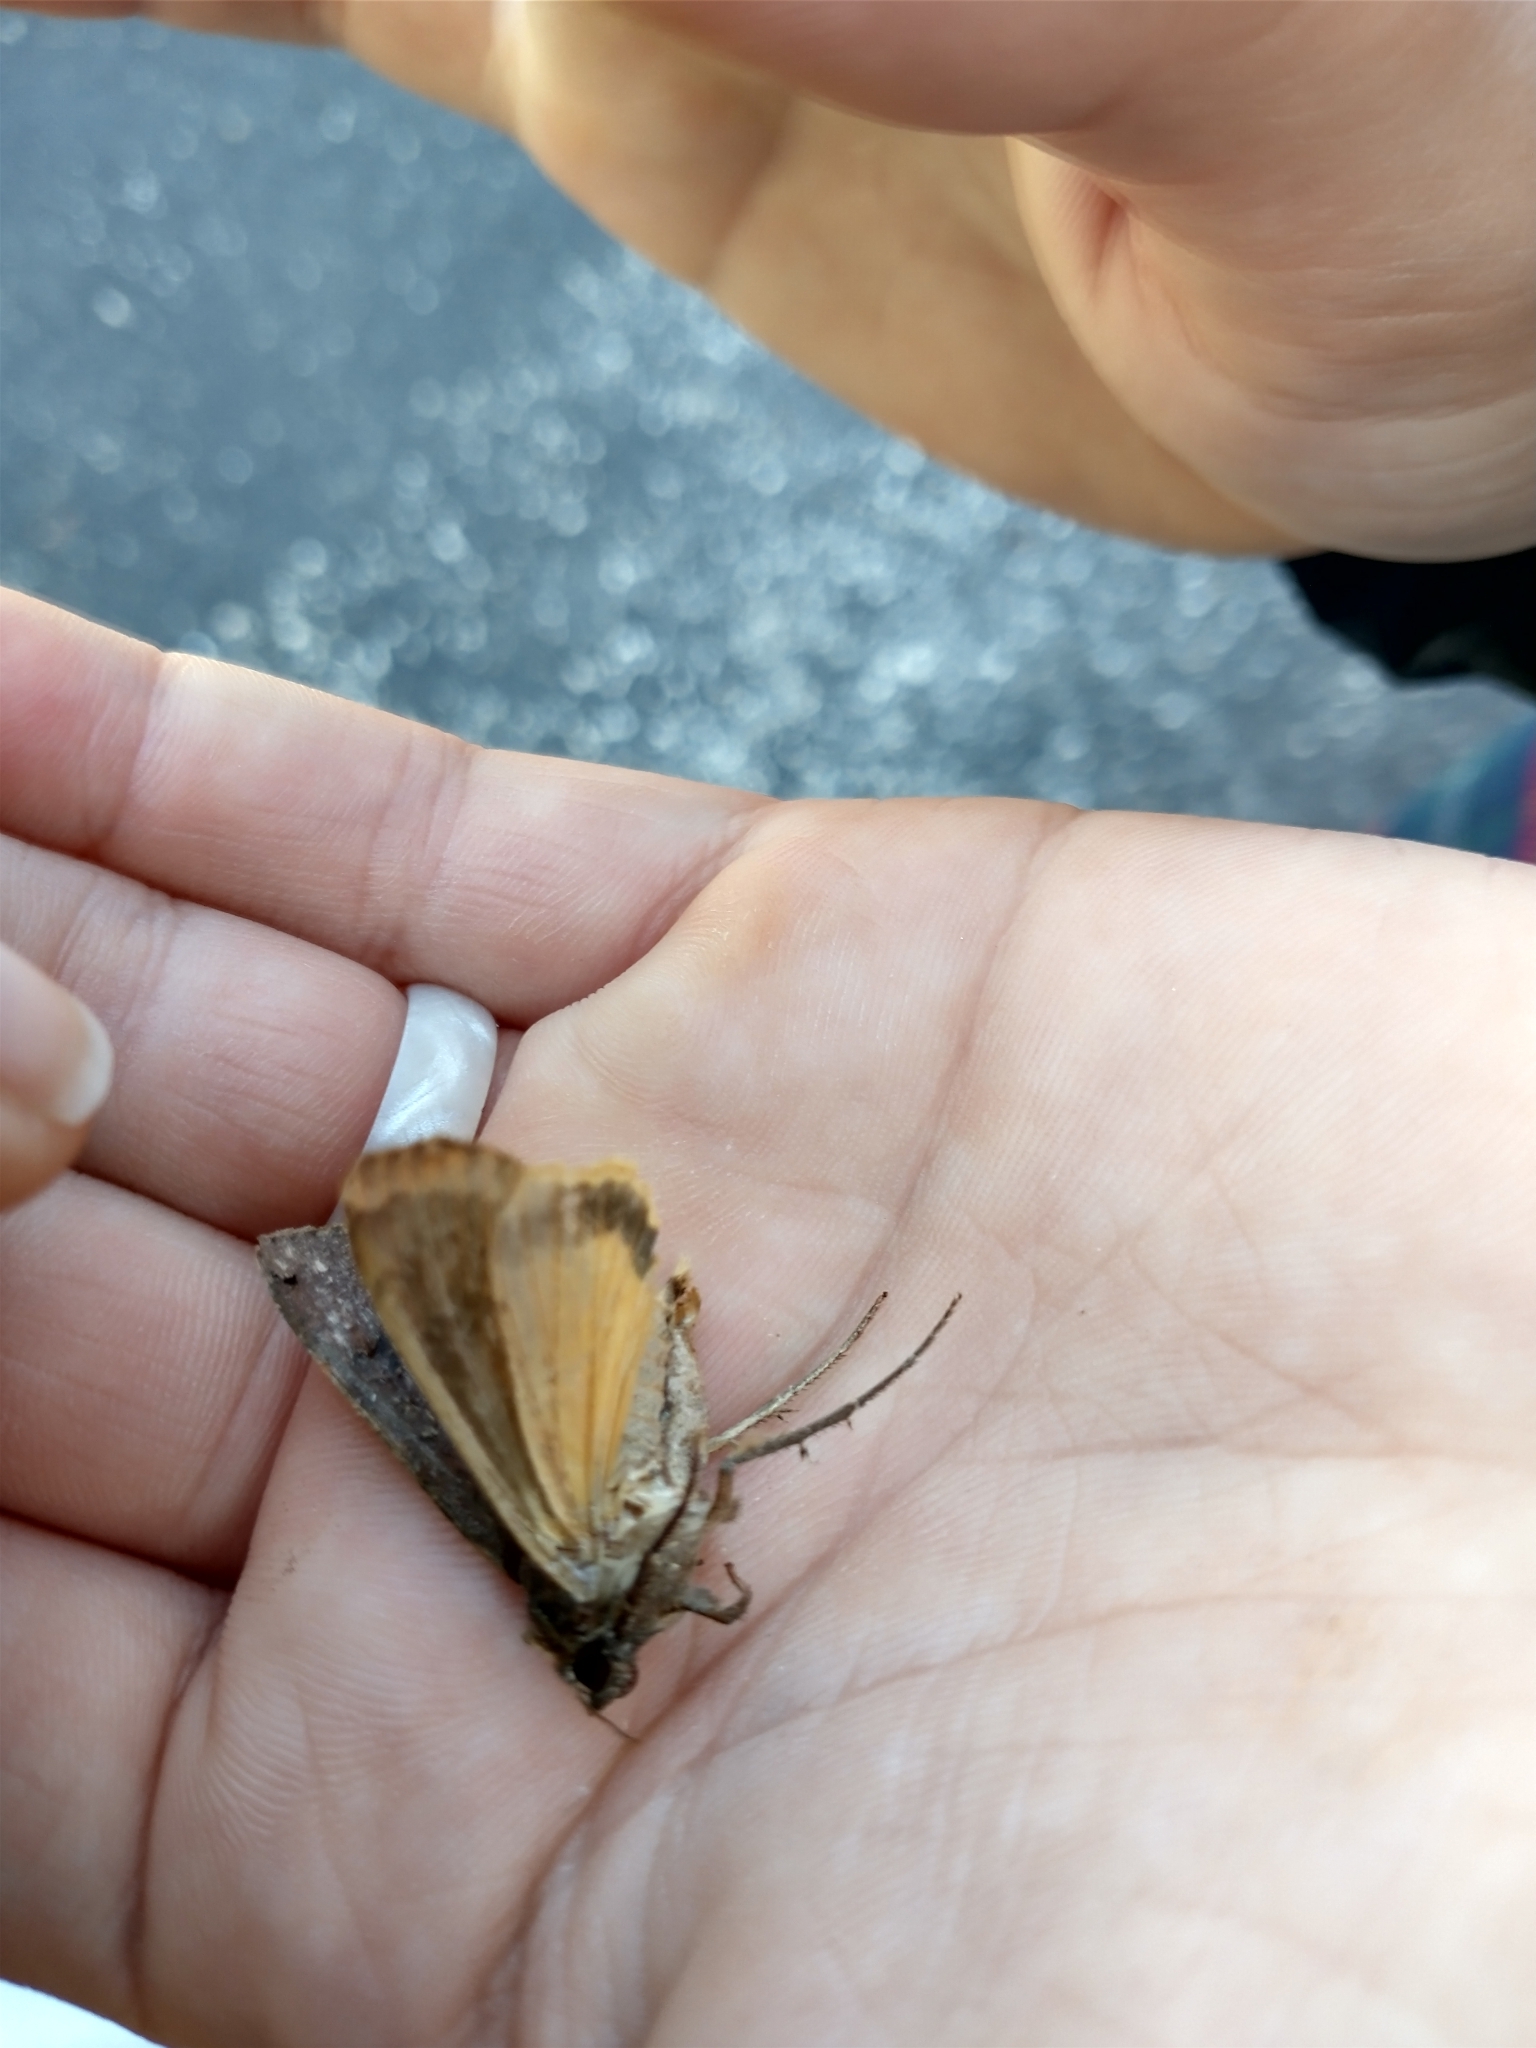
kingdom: Animalia
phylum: Arthropoda
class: Insecta
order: Lepidoptera
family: Noctuidae
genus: Noctua
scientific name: Noctua pronuba
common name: Large yellow underwing
